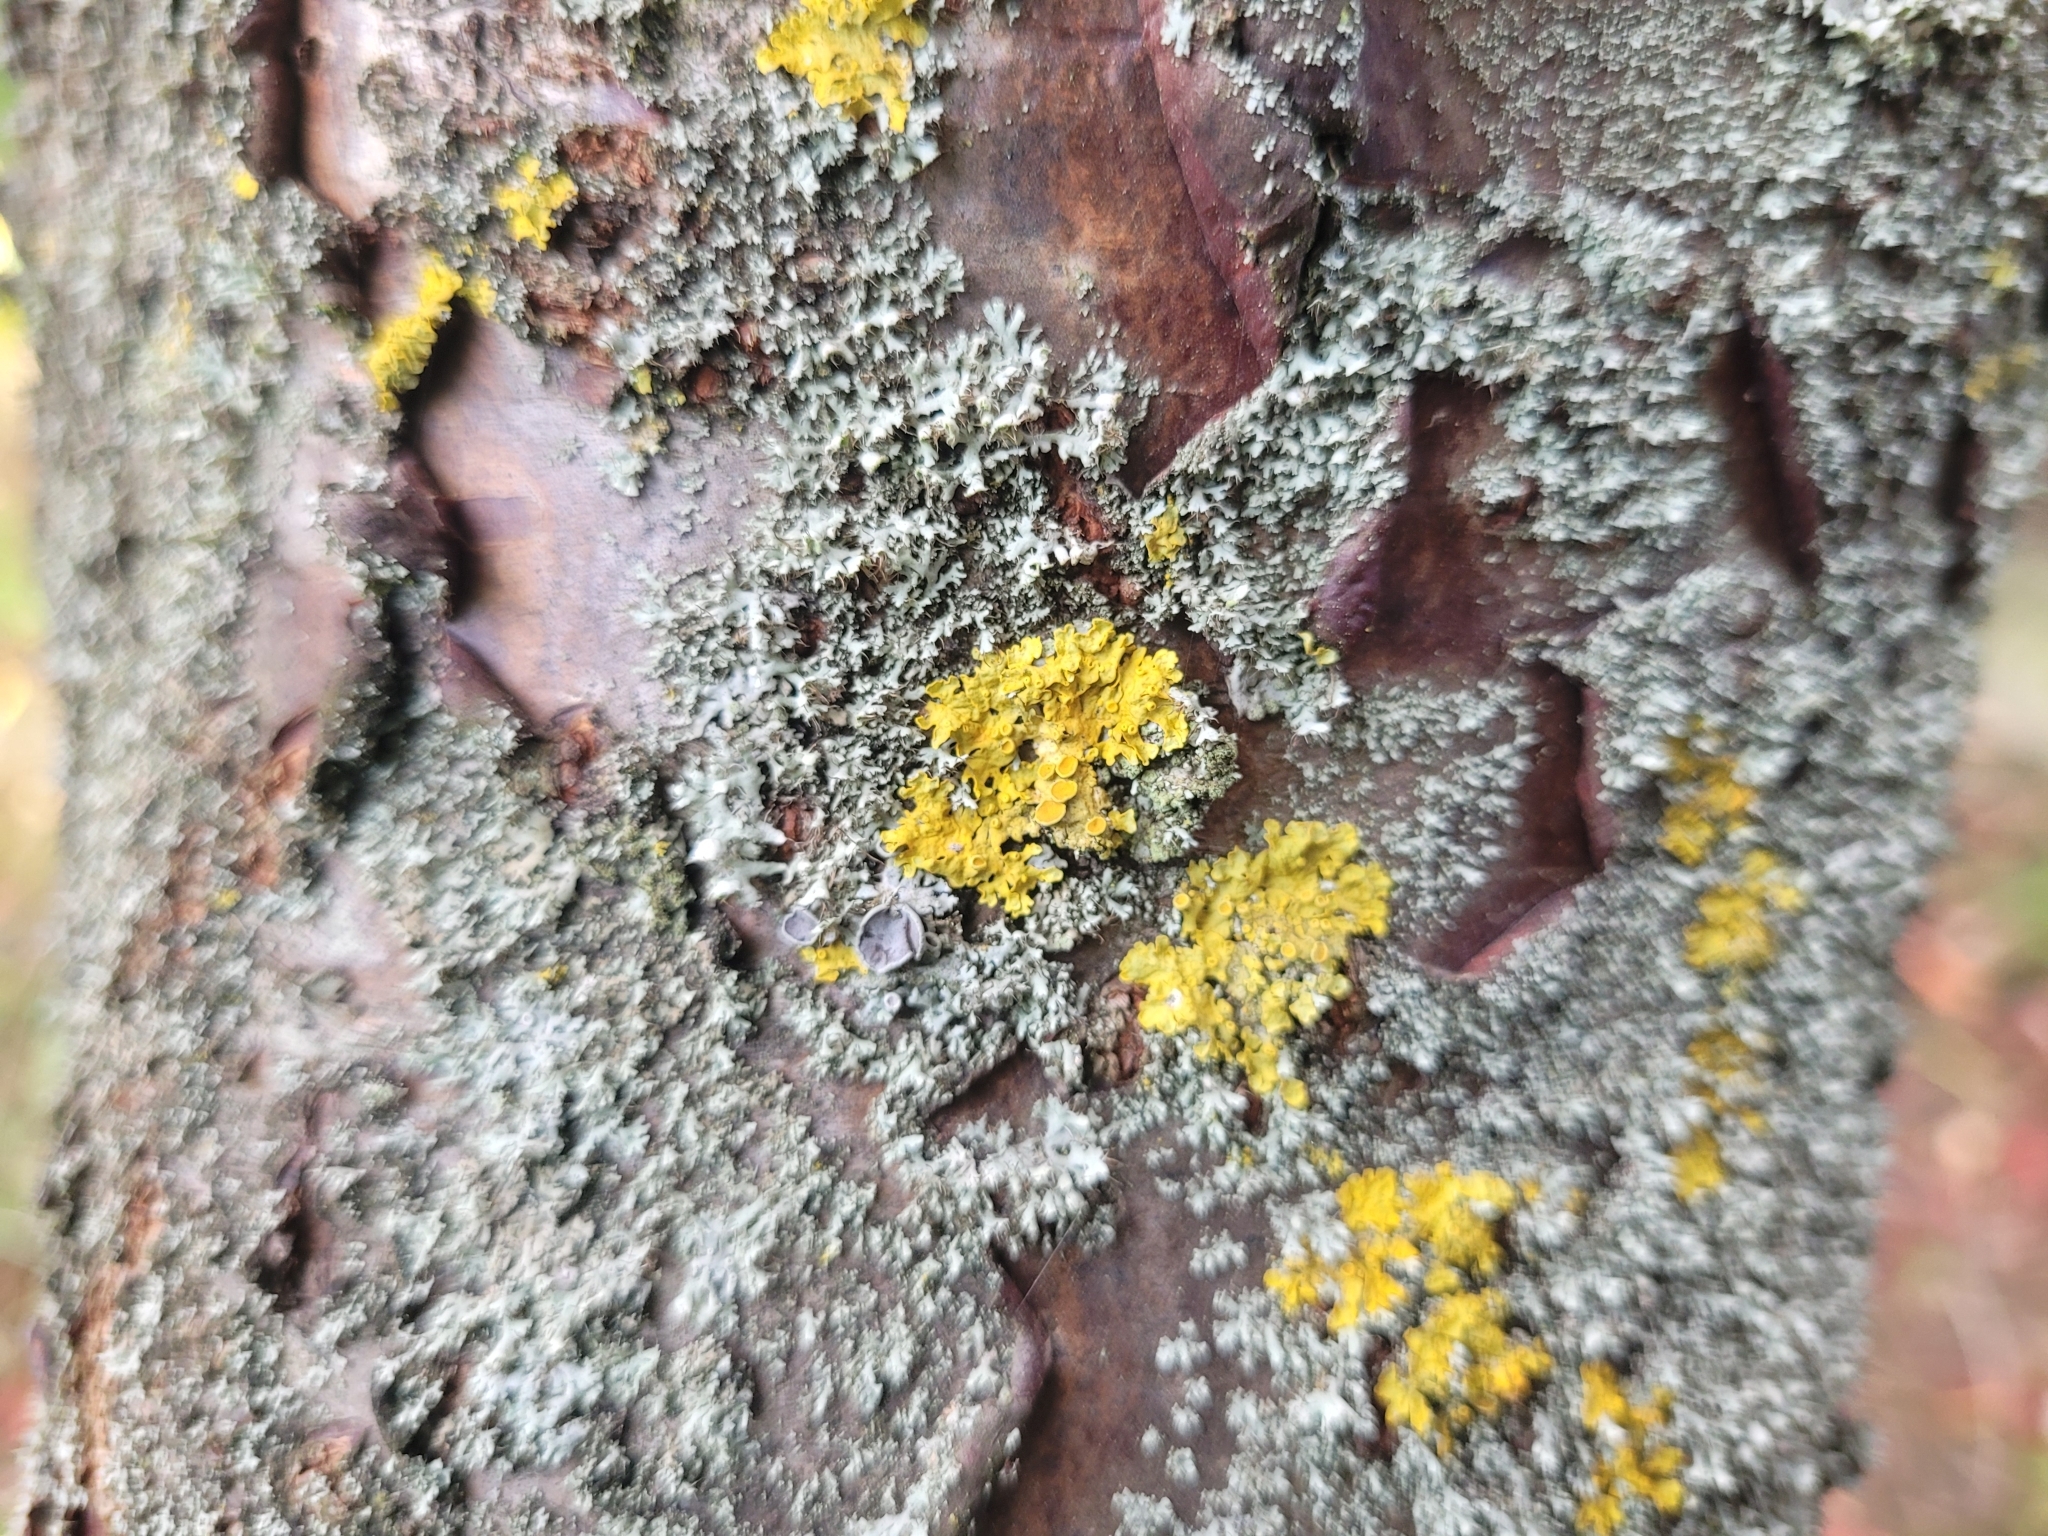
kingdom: Fungi
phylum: Ascomycota
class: Lecanoromycetes
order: Teloschistales
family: Teloschistaceae
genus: Xanthoria
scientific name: Xanthoria parietina
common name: Common orange lichen
